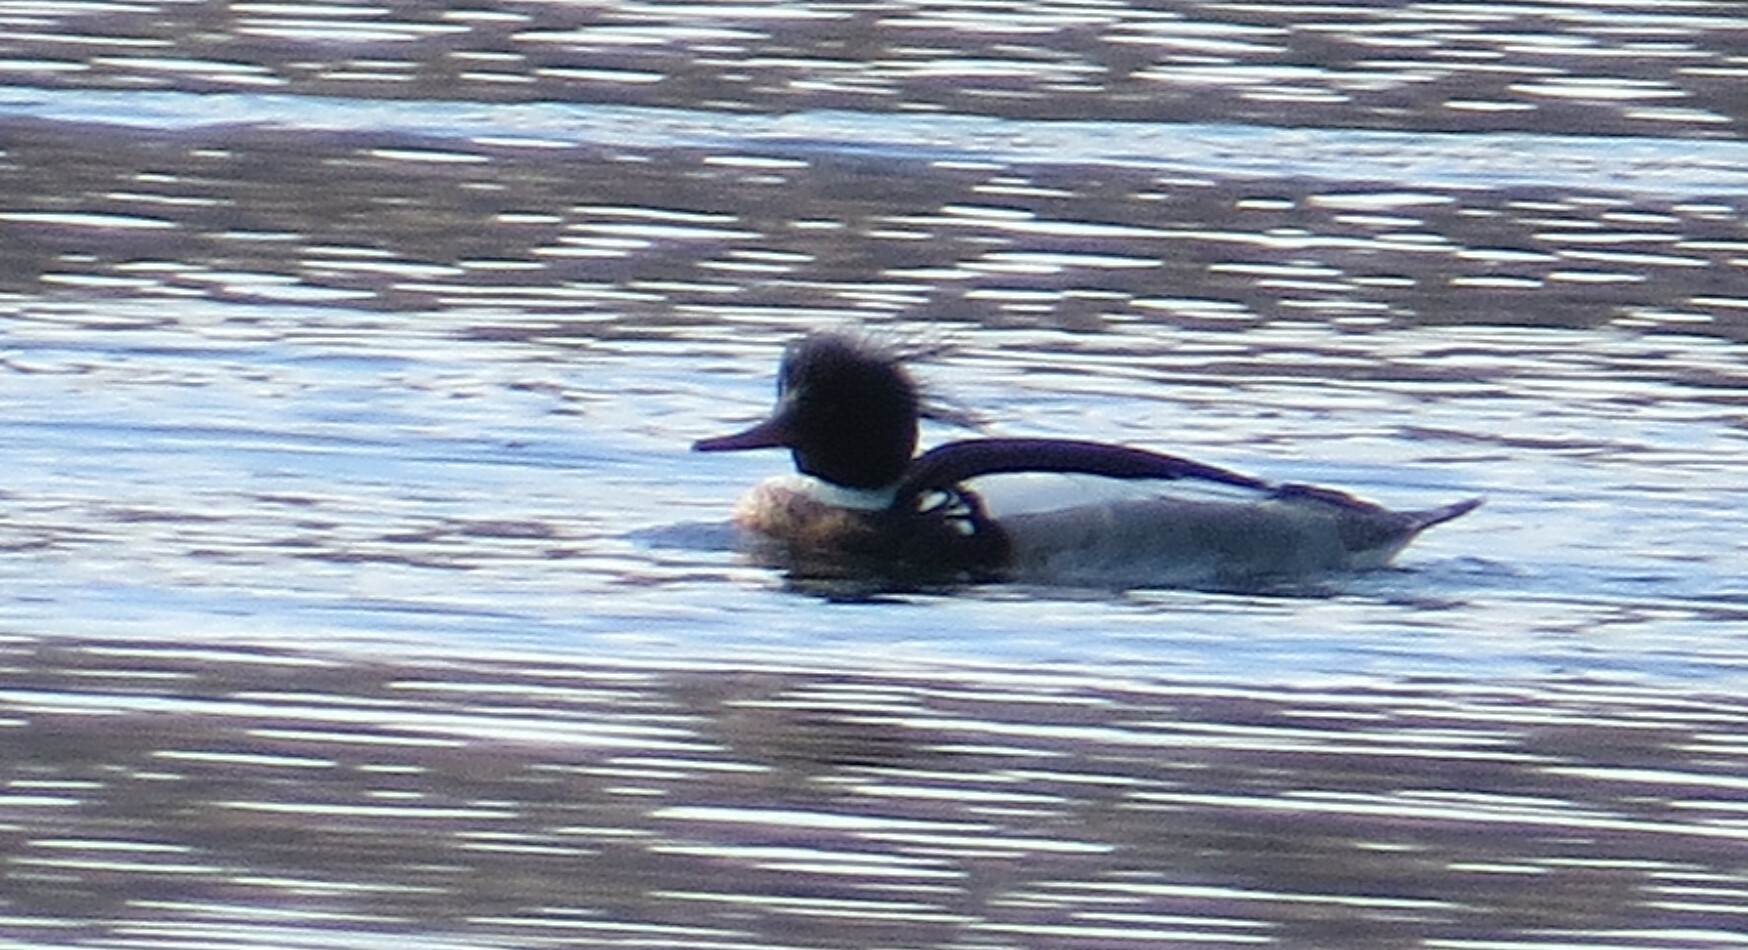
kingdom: Animalia
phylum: Chordata
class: Aves
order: Anseriformes
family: Anatidae
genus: Mergus
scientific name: Mergus serrator
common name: Red-breasted merganser
